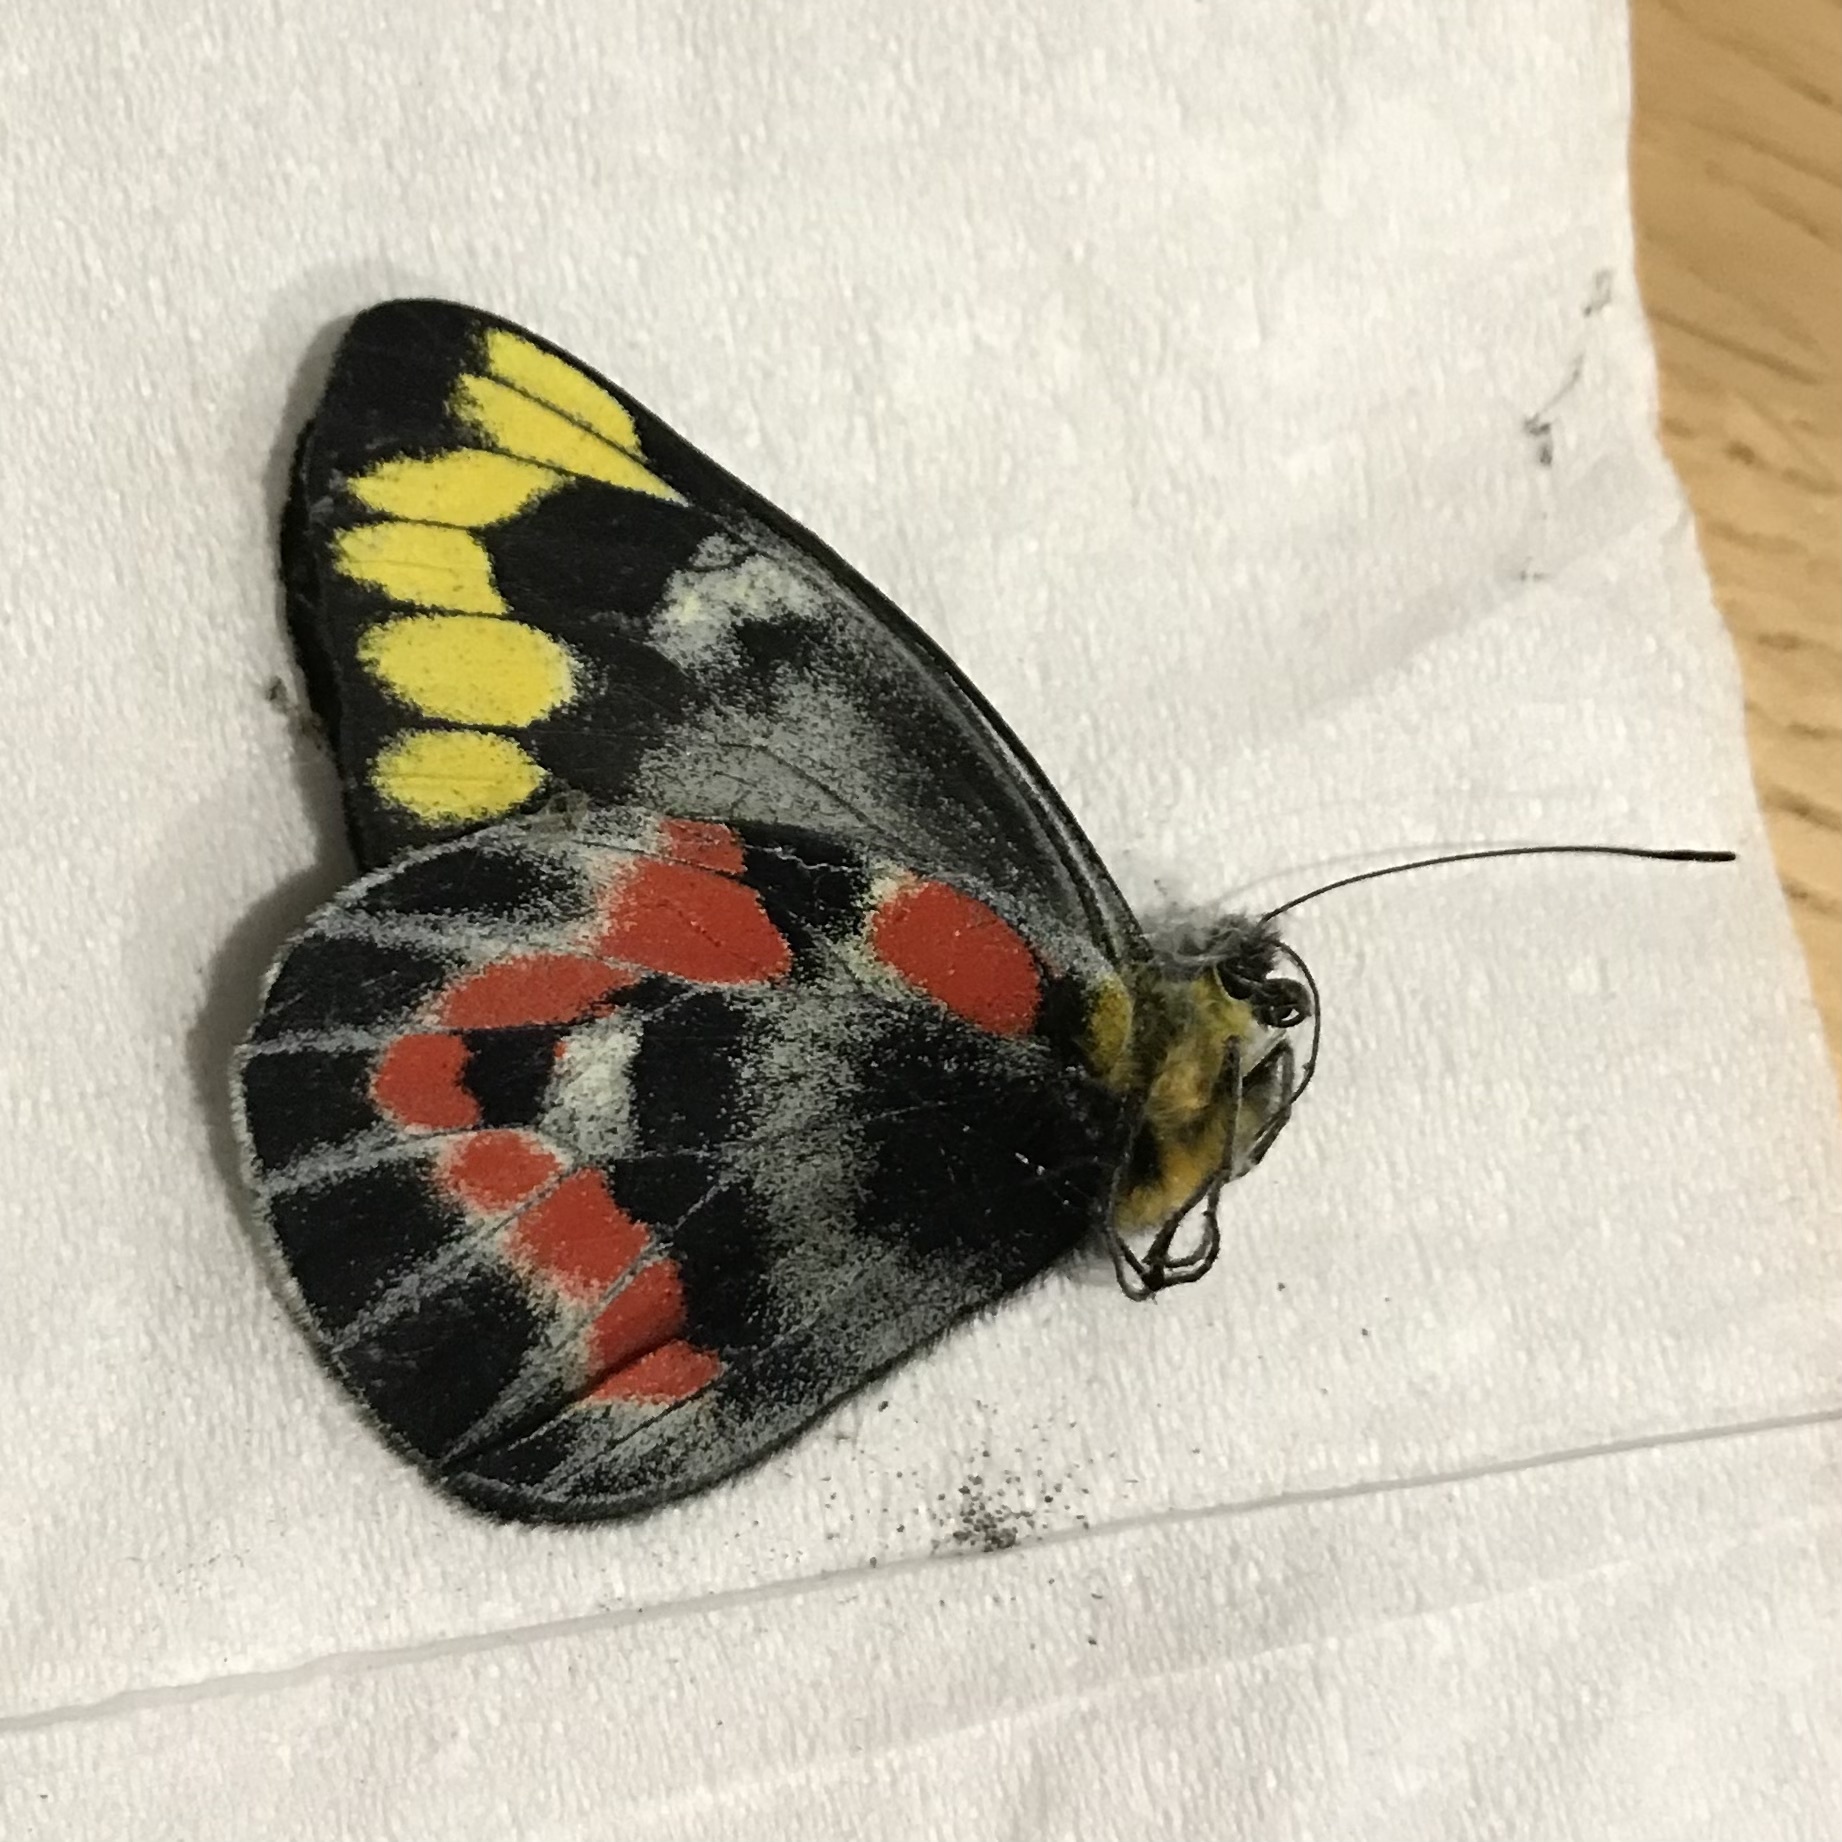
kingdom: Animalia
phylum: Arthropoda
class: Insecta
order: Lepidoptera
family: Pieridae
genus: Delias
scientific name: Delias harpalyce
